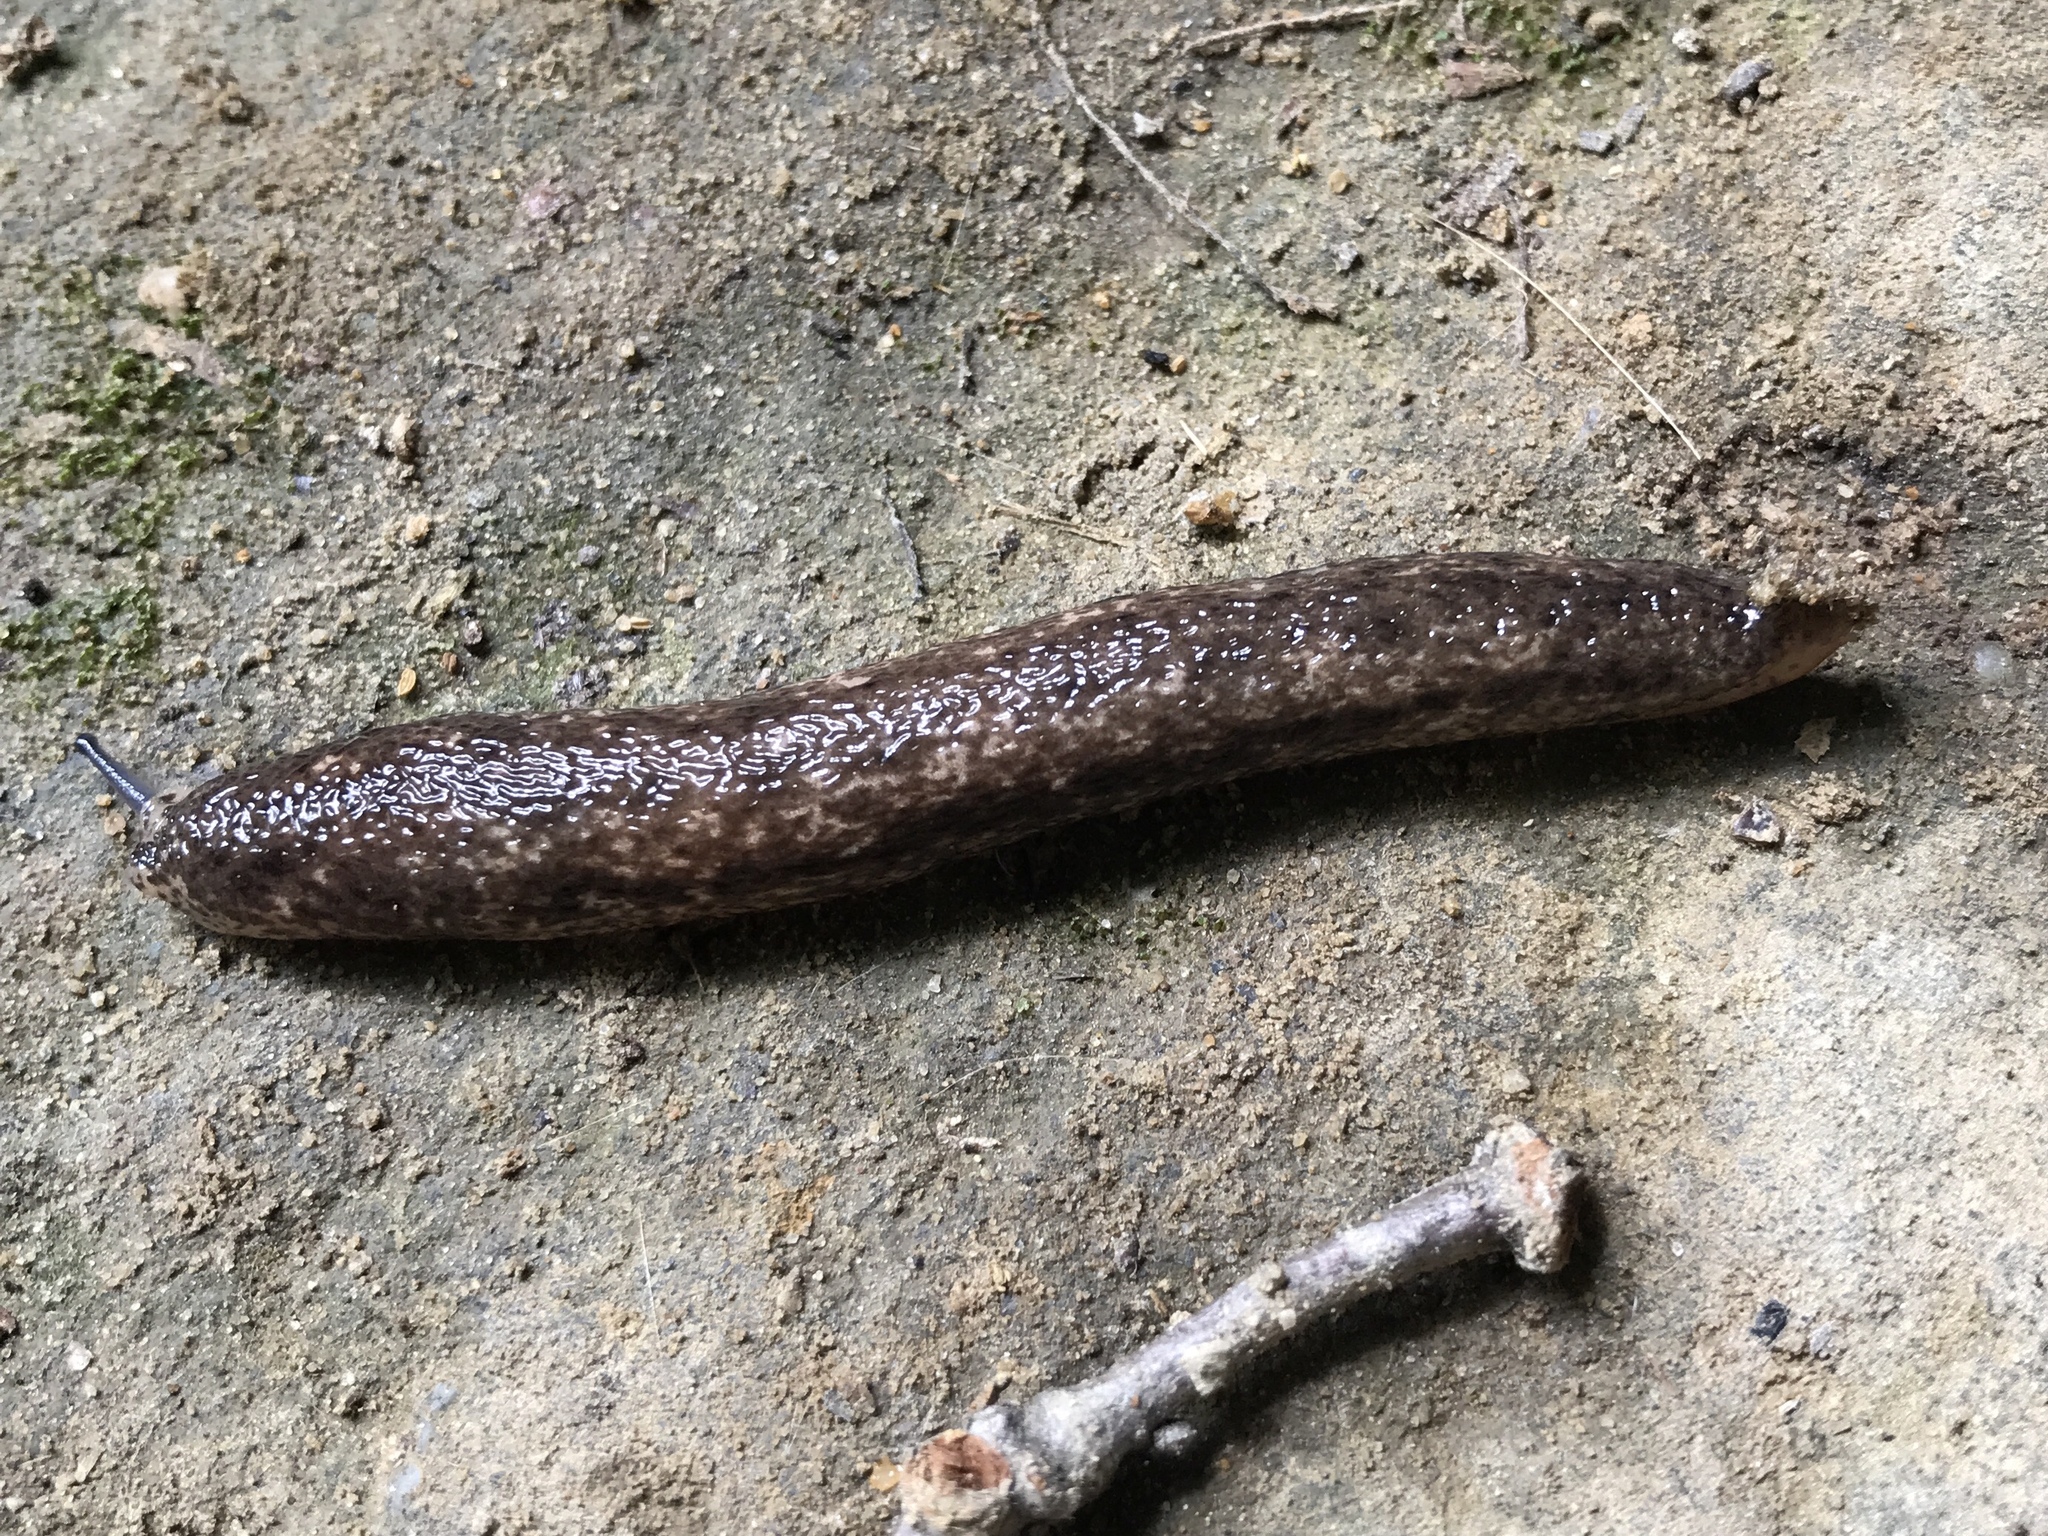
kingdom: Animalia
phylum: Mollusca
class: Gastropoda
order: Stylommatophora
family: Philomycidae
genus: Philomycus
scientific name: Philomycus togatus
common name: Toga mantleslug
